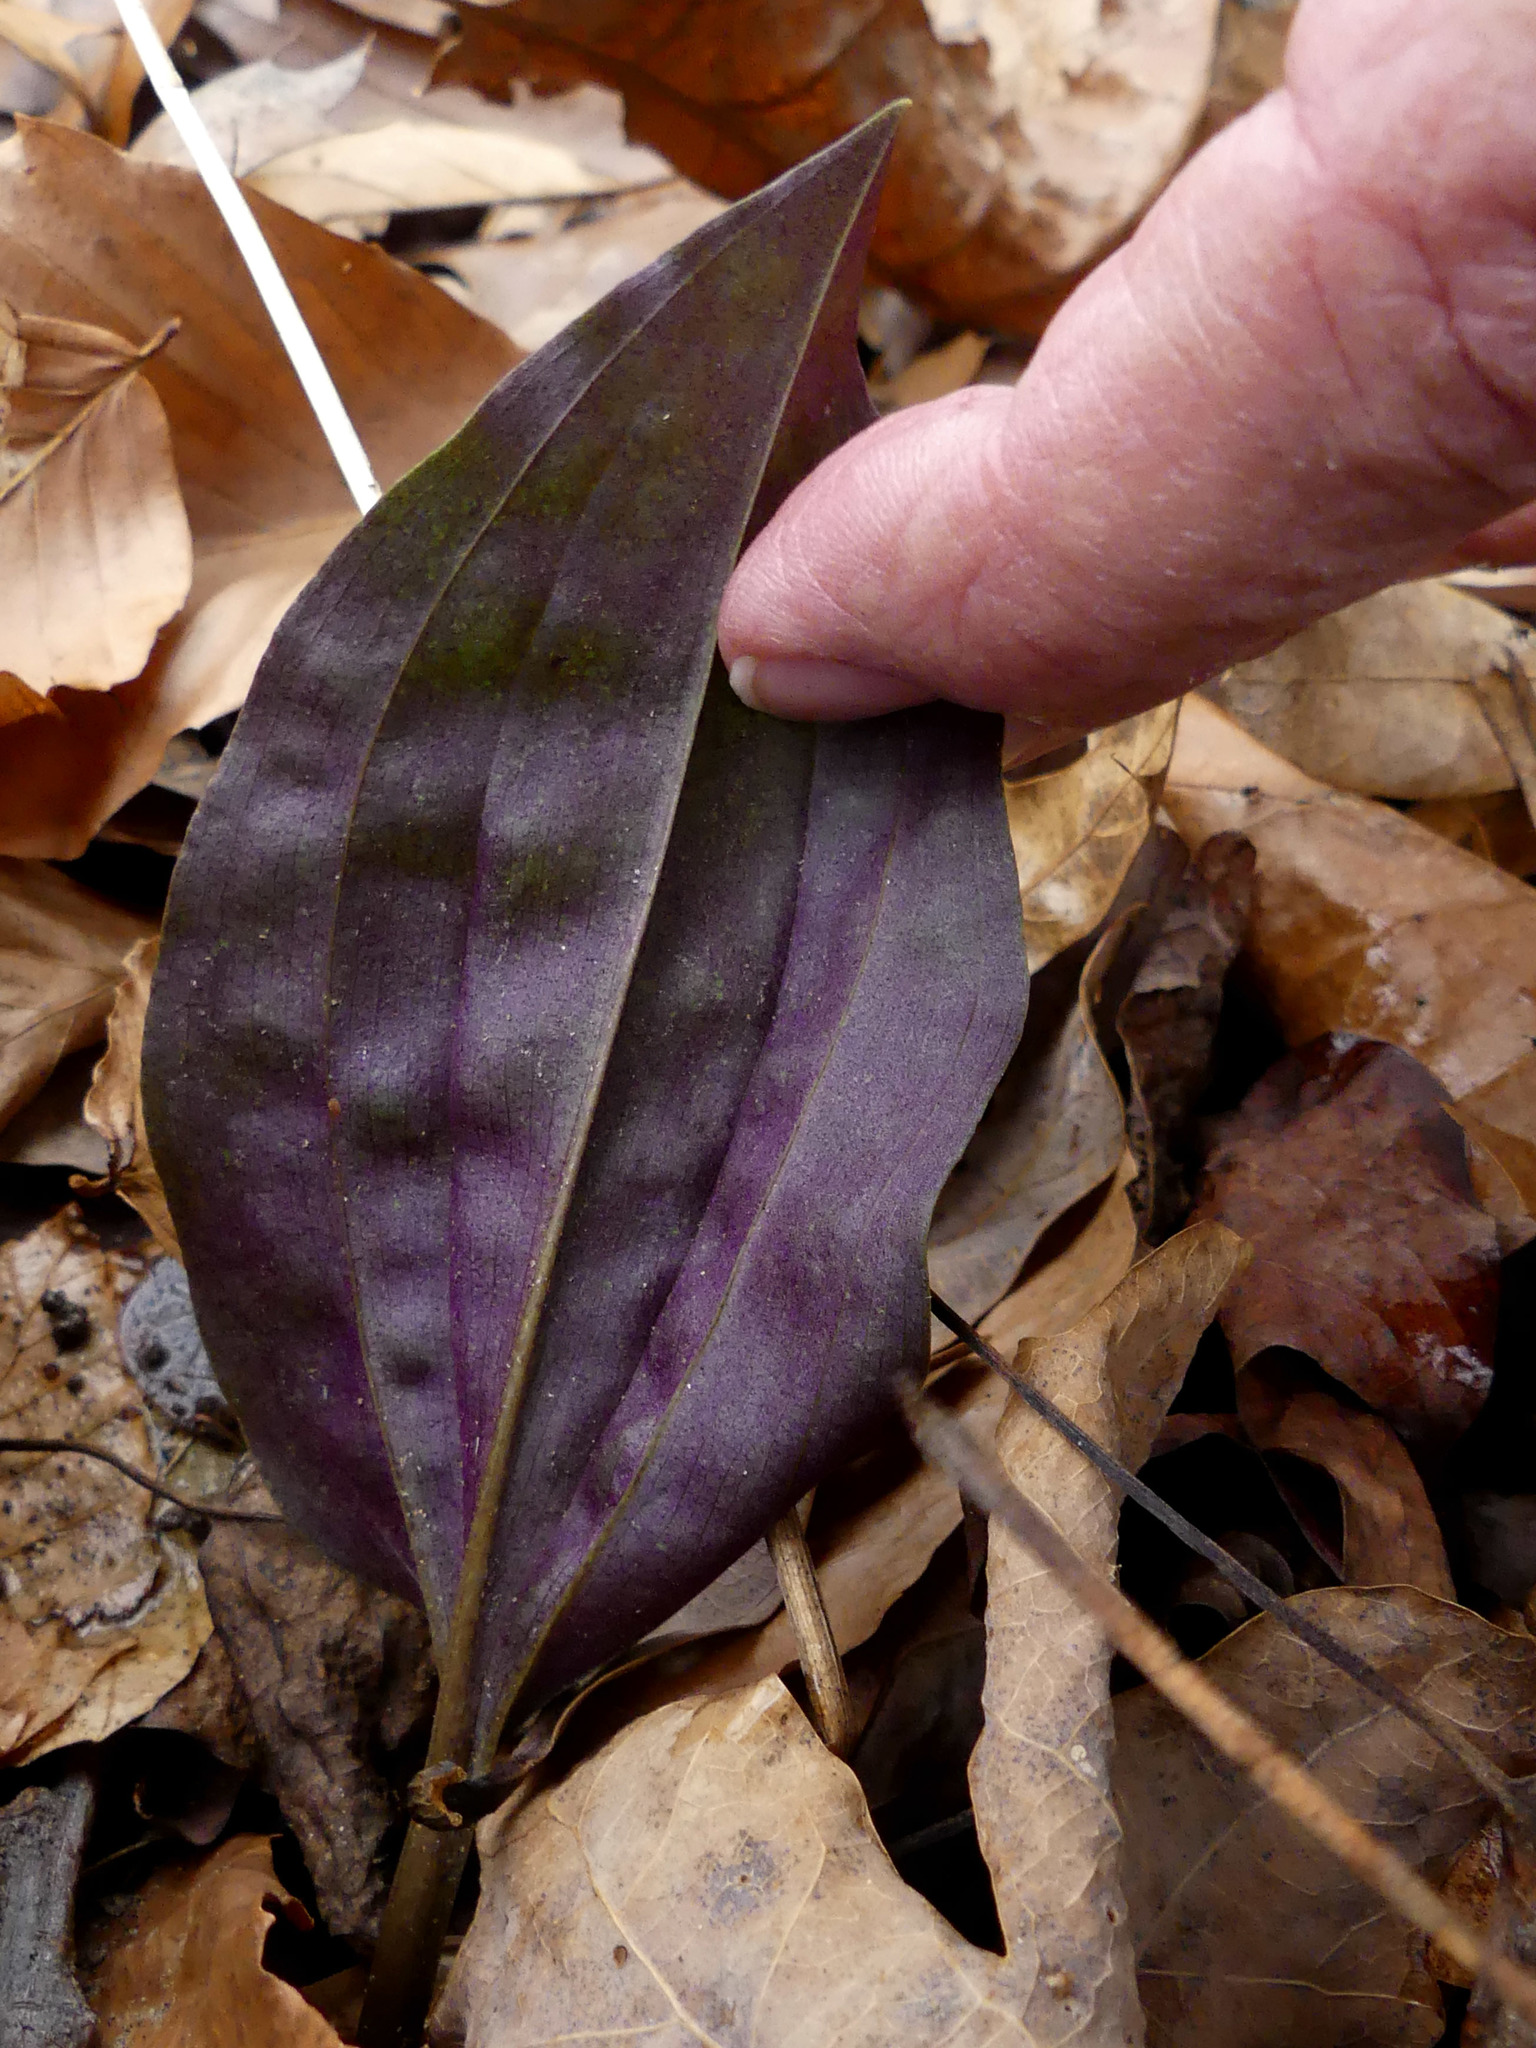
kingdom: Plantae
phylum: Tracheophyta
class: Liliopsida
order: Asparagales
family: Orchidaceae
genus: Tipularia
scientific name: Tipularia discolor
